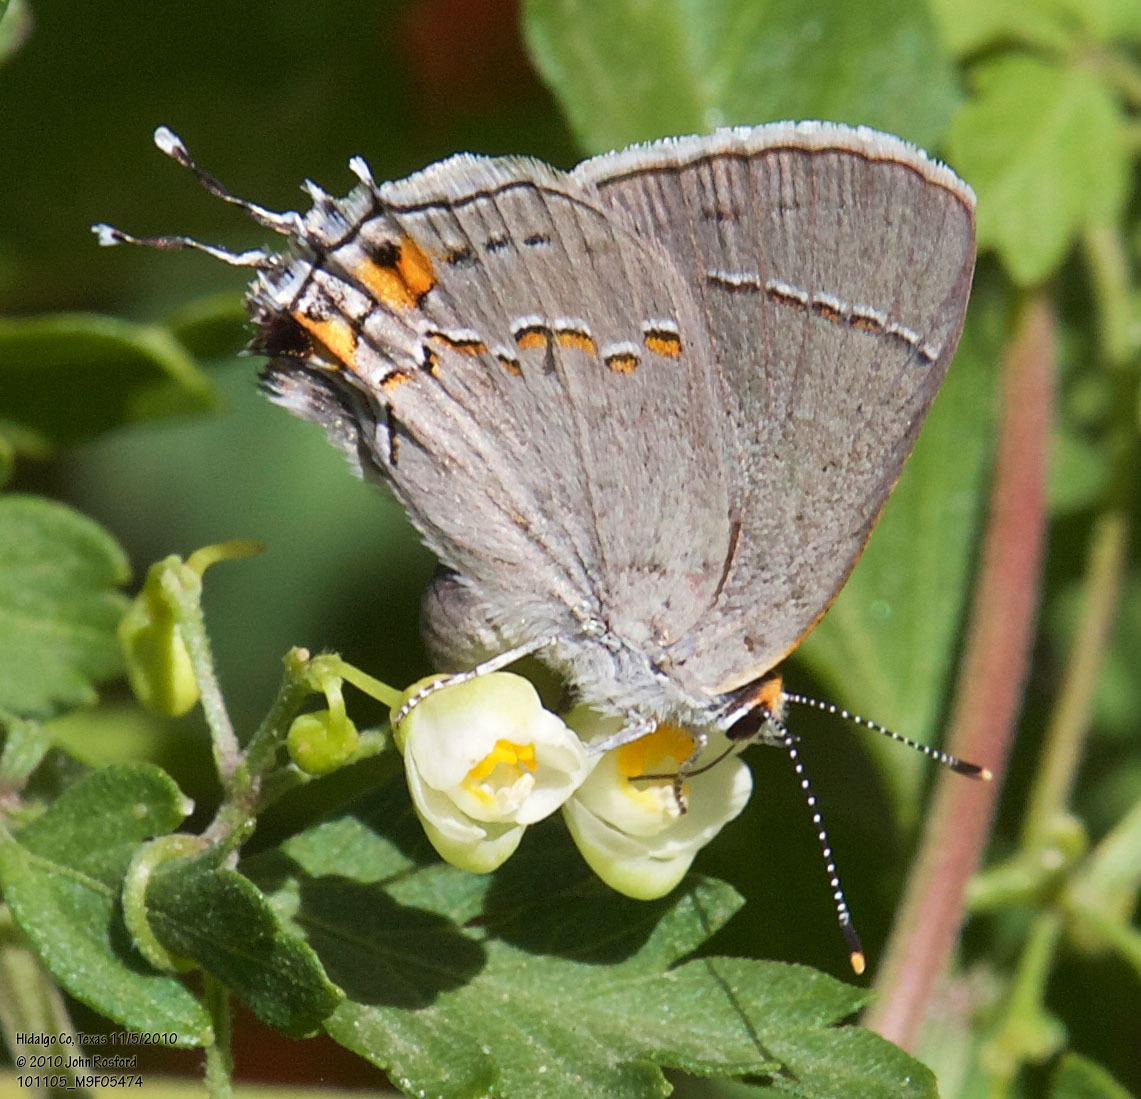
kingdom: Animalia
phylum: Arthropoda
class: Insecta
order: Lepidoptera
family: Lycaenidae
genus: Strymon
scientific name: Strymon melinus
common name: Gray hairstreak
